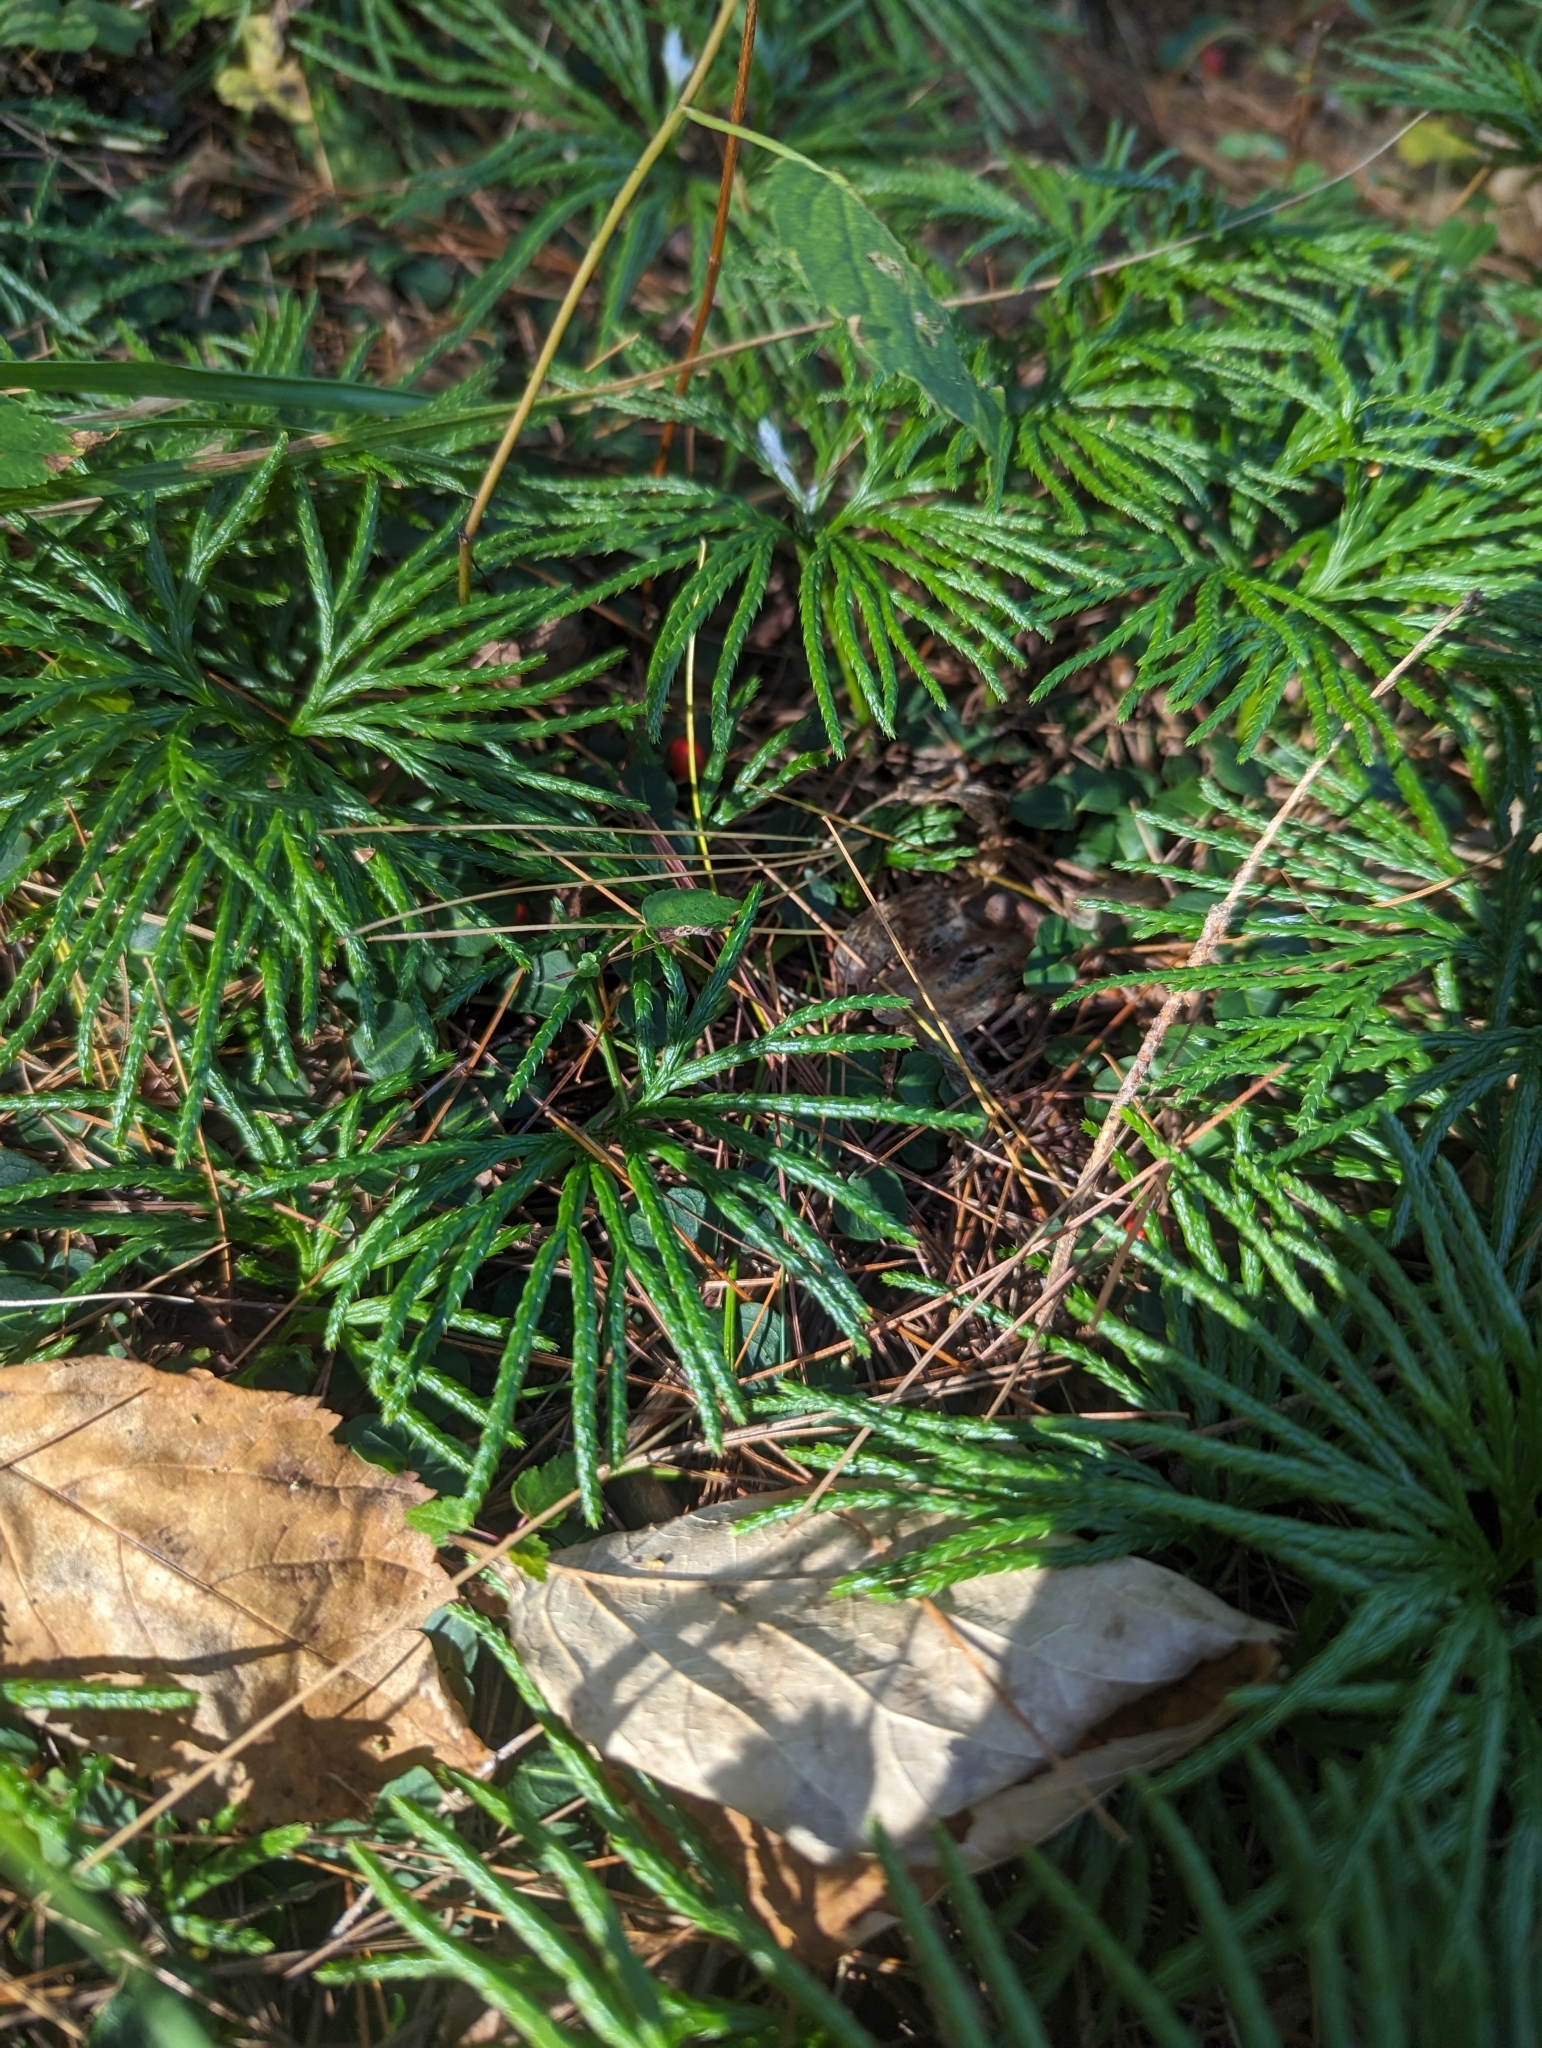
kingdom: Plantae
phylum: Tracheophyta
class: Lycopodiopsida
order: Lycopodiales
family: Lycopodiaceae
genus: Diphasiastrum
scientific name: Diphasiastrum digitatum
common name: Southern running-pine
